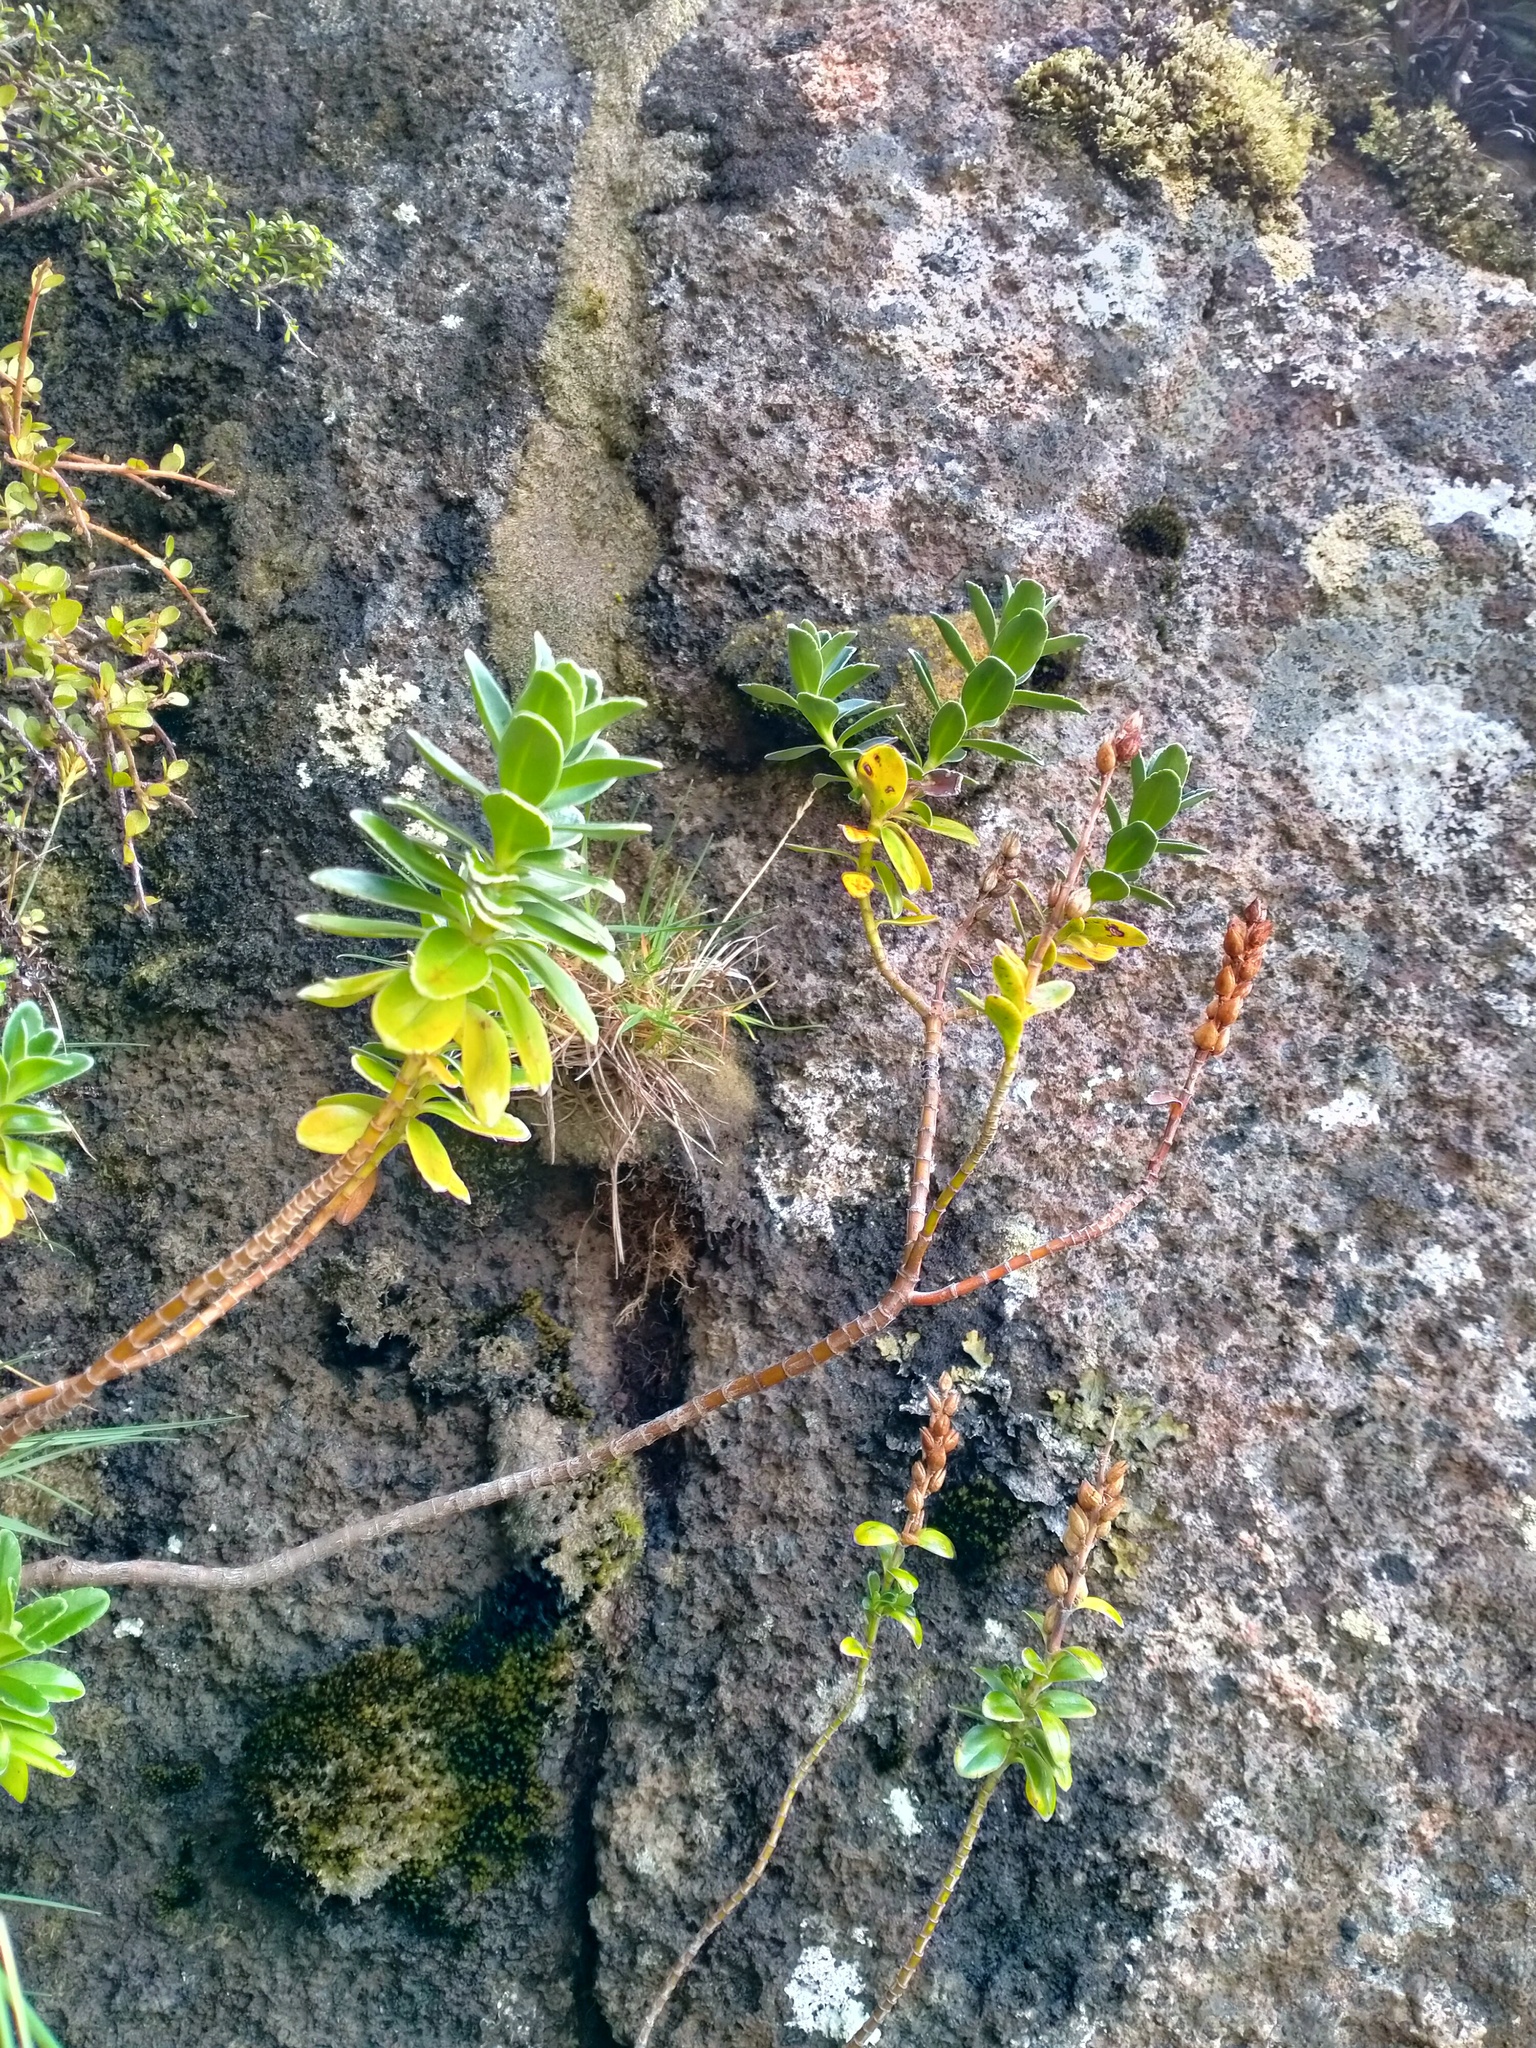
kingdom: Plantae
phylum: Tracheophyta
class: Magnoliopsida
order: Lamiales
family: Plantaginaceae
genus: Veronica
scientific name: Veronica benthamii
